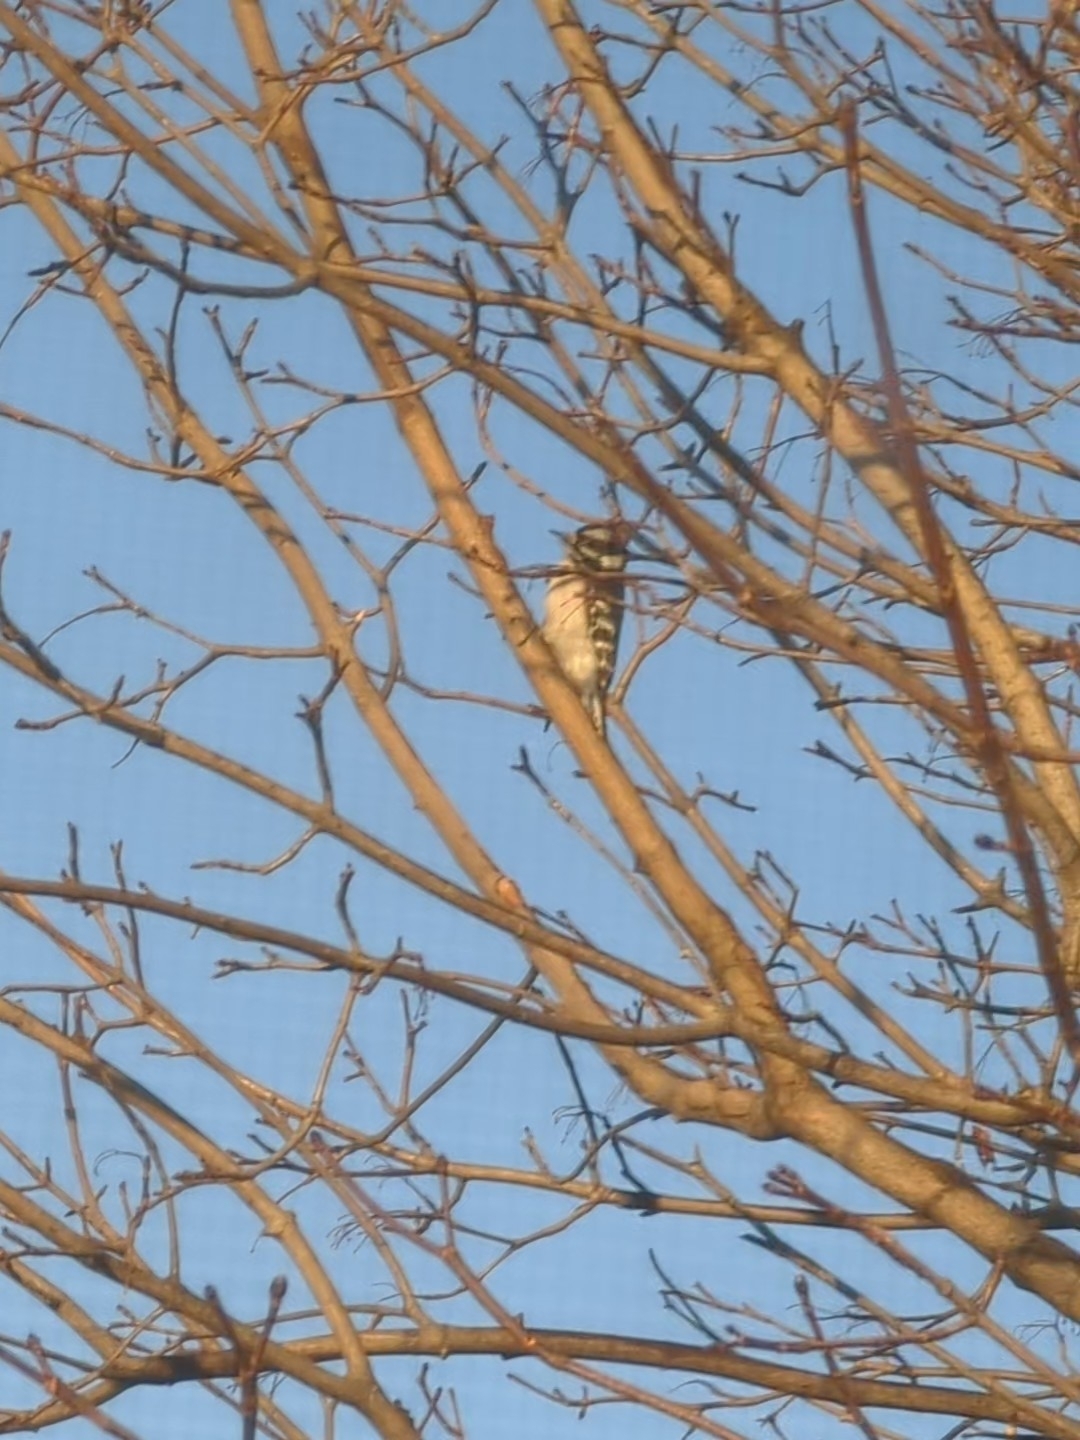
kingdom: Animalia
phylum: Chordata
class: Aves
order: Piciformes
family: Picidae
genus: Dryobates
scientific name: Dryobates pubescens
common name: Downy woodpecker
